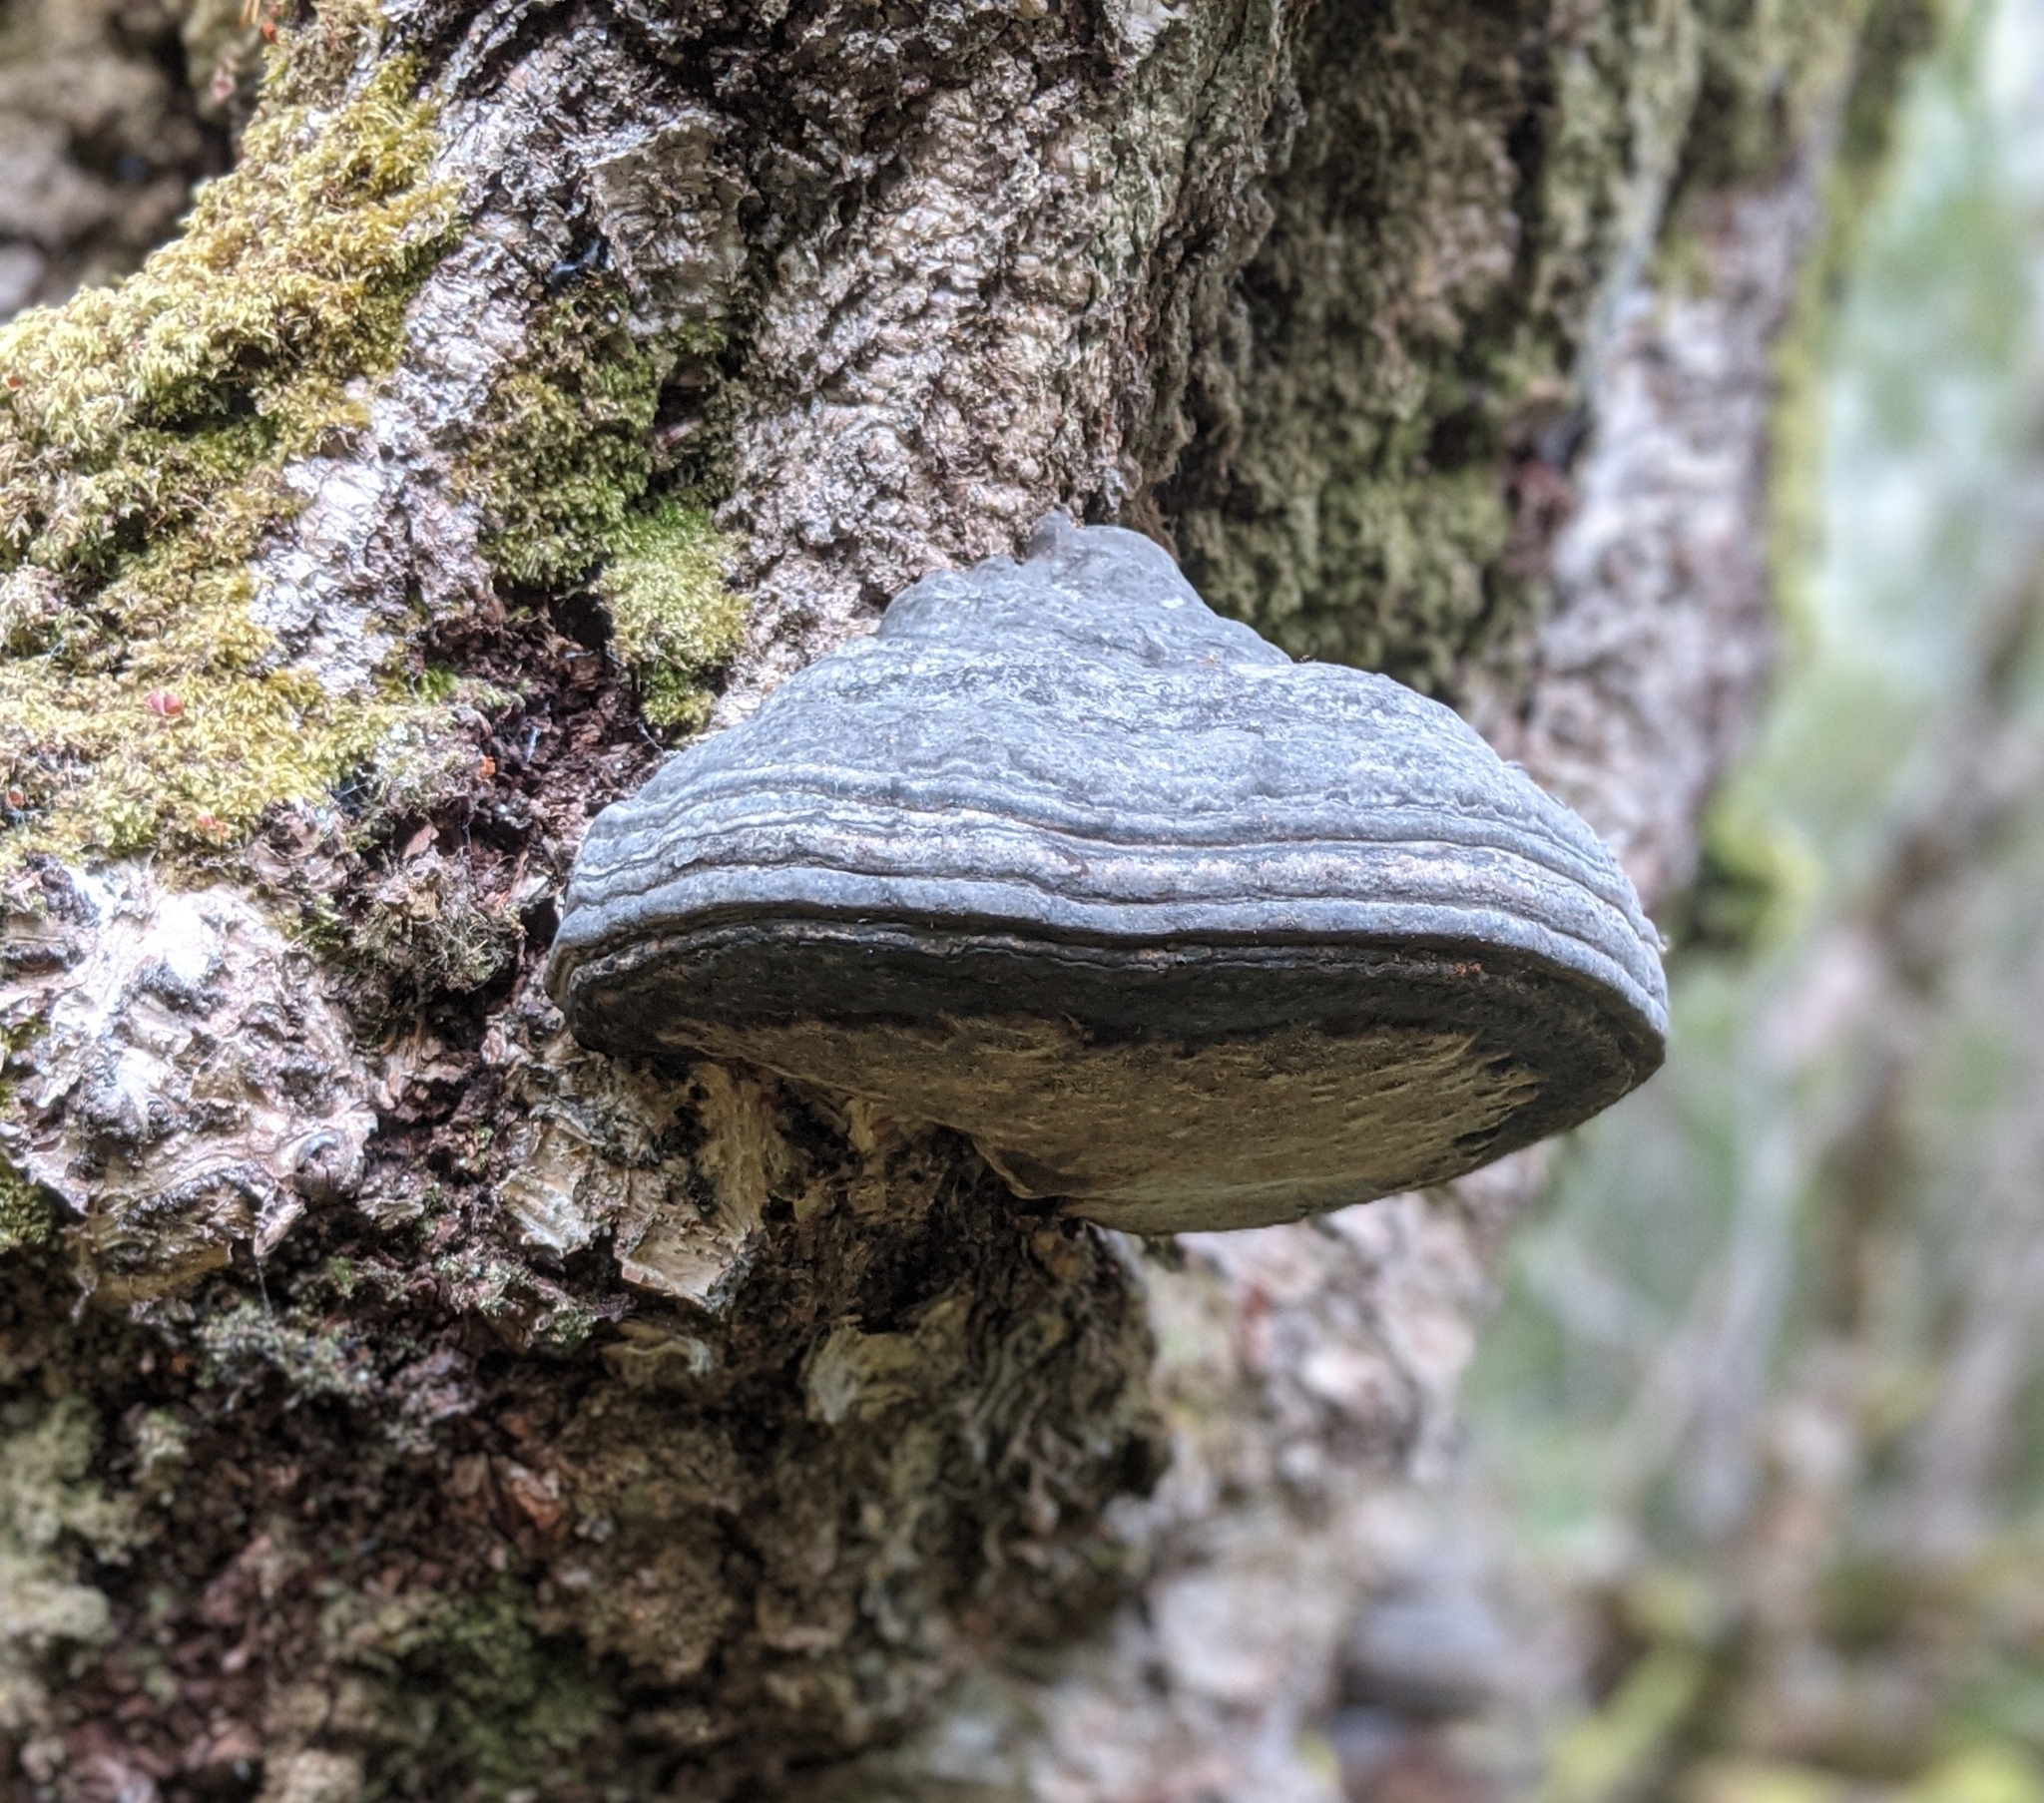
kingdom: Fungi
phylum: Basidiomycota
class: Agaricomycetes
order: Polyporales
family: Polyporaceae
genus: Fomes
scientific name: Fomes fomentarius
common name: Hoof fungus
